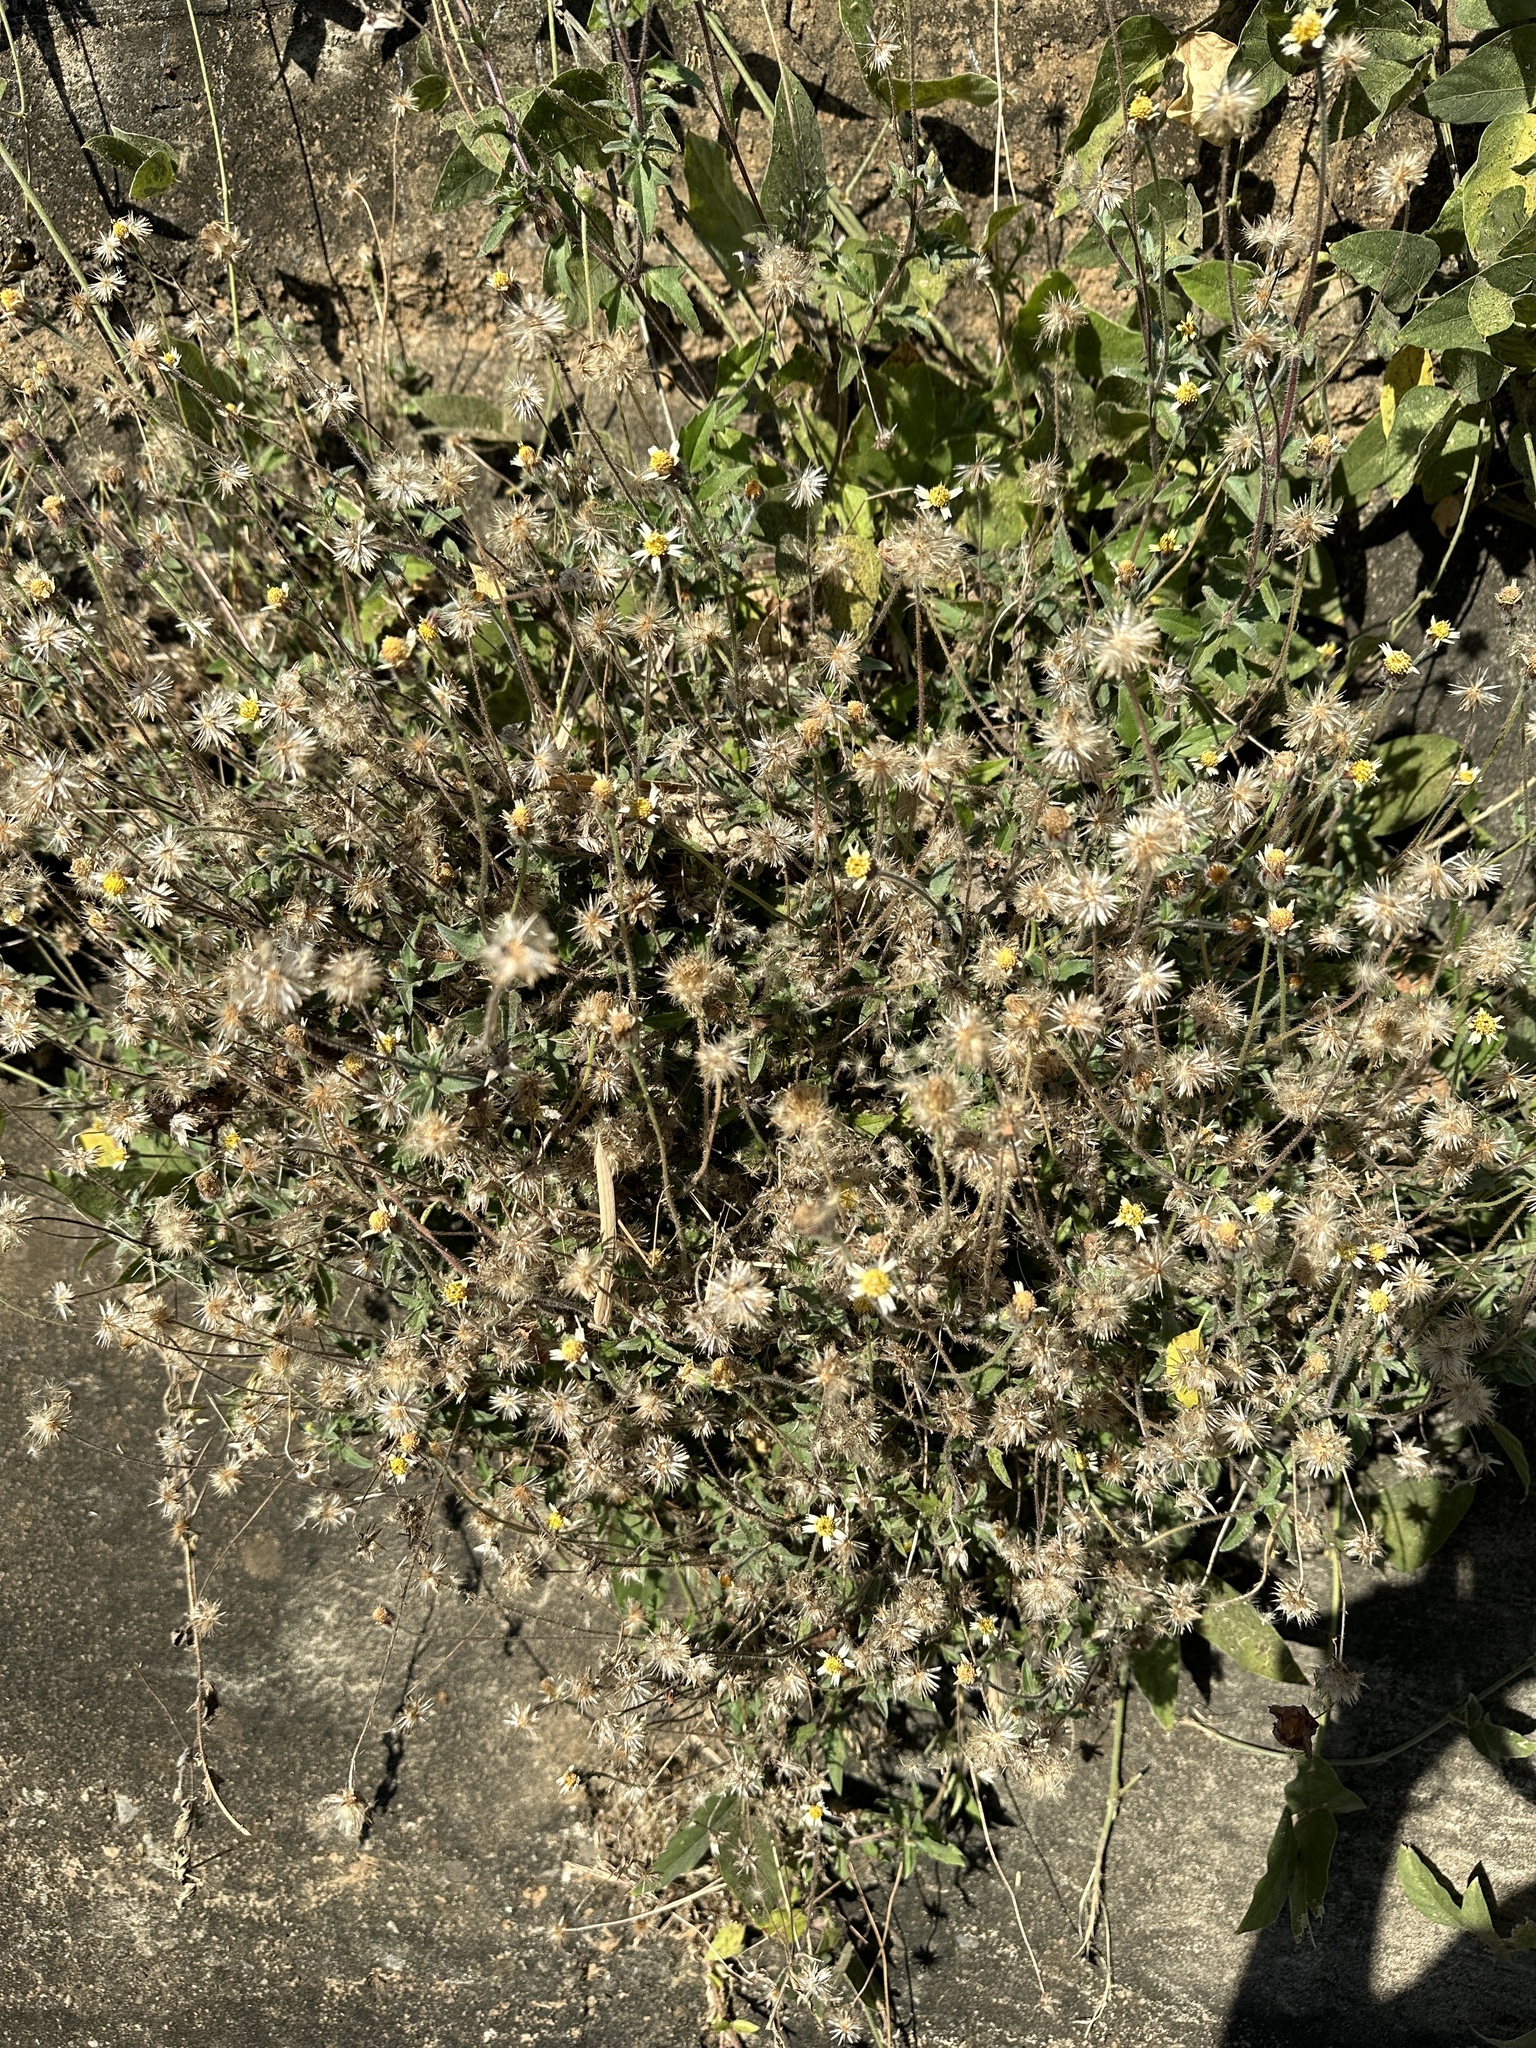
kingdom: Plantae
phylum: Tracheophyta
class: Magnoliopsida
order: Asterales
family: Asteraceae
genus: Tridax
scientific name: Tridax procumbens
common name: Coatbuttons
